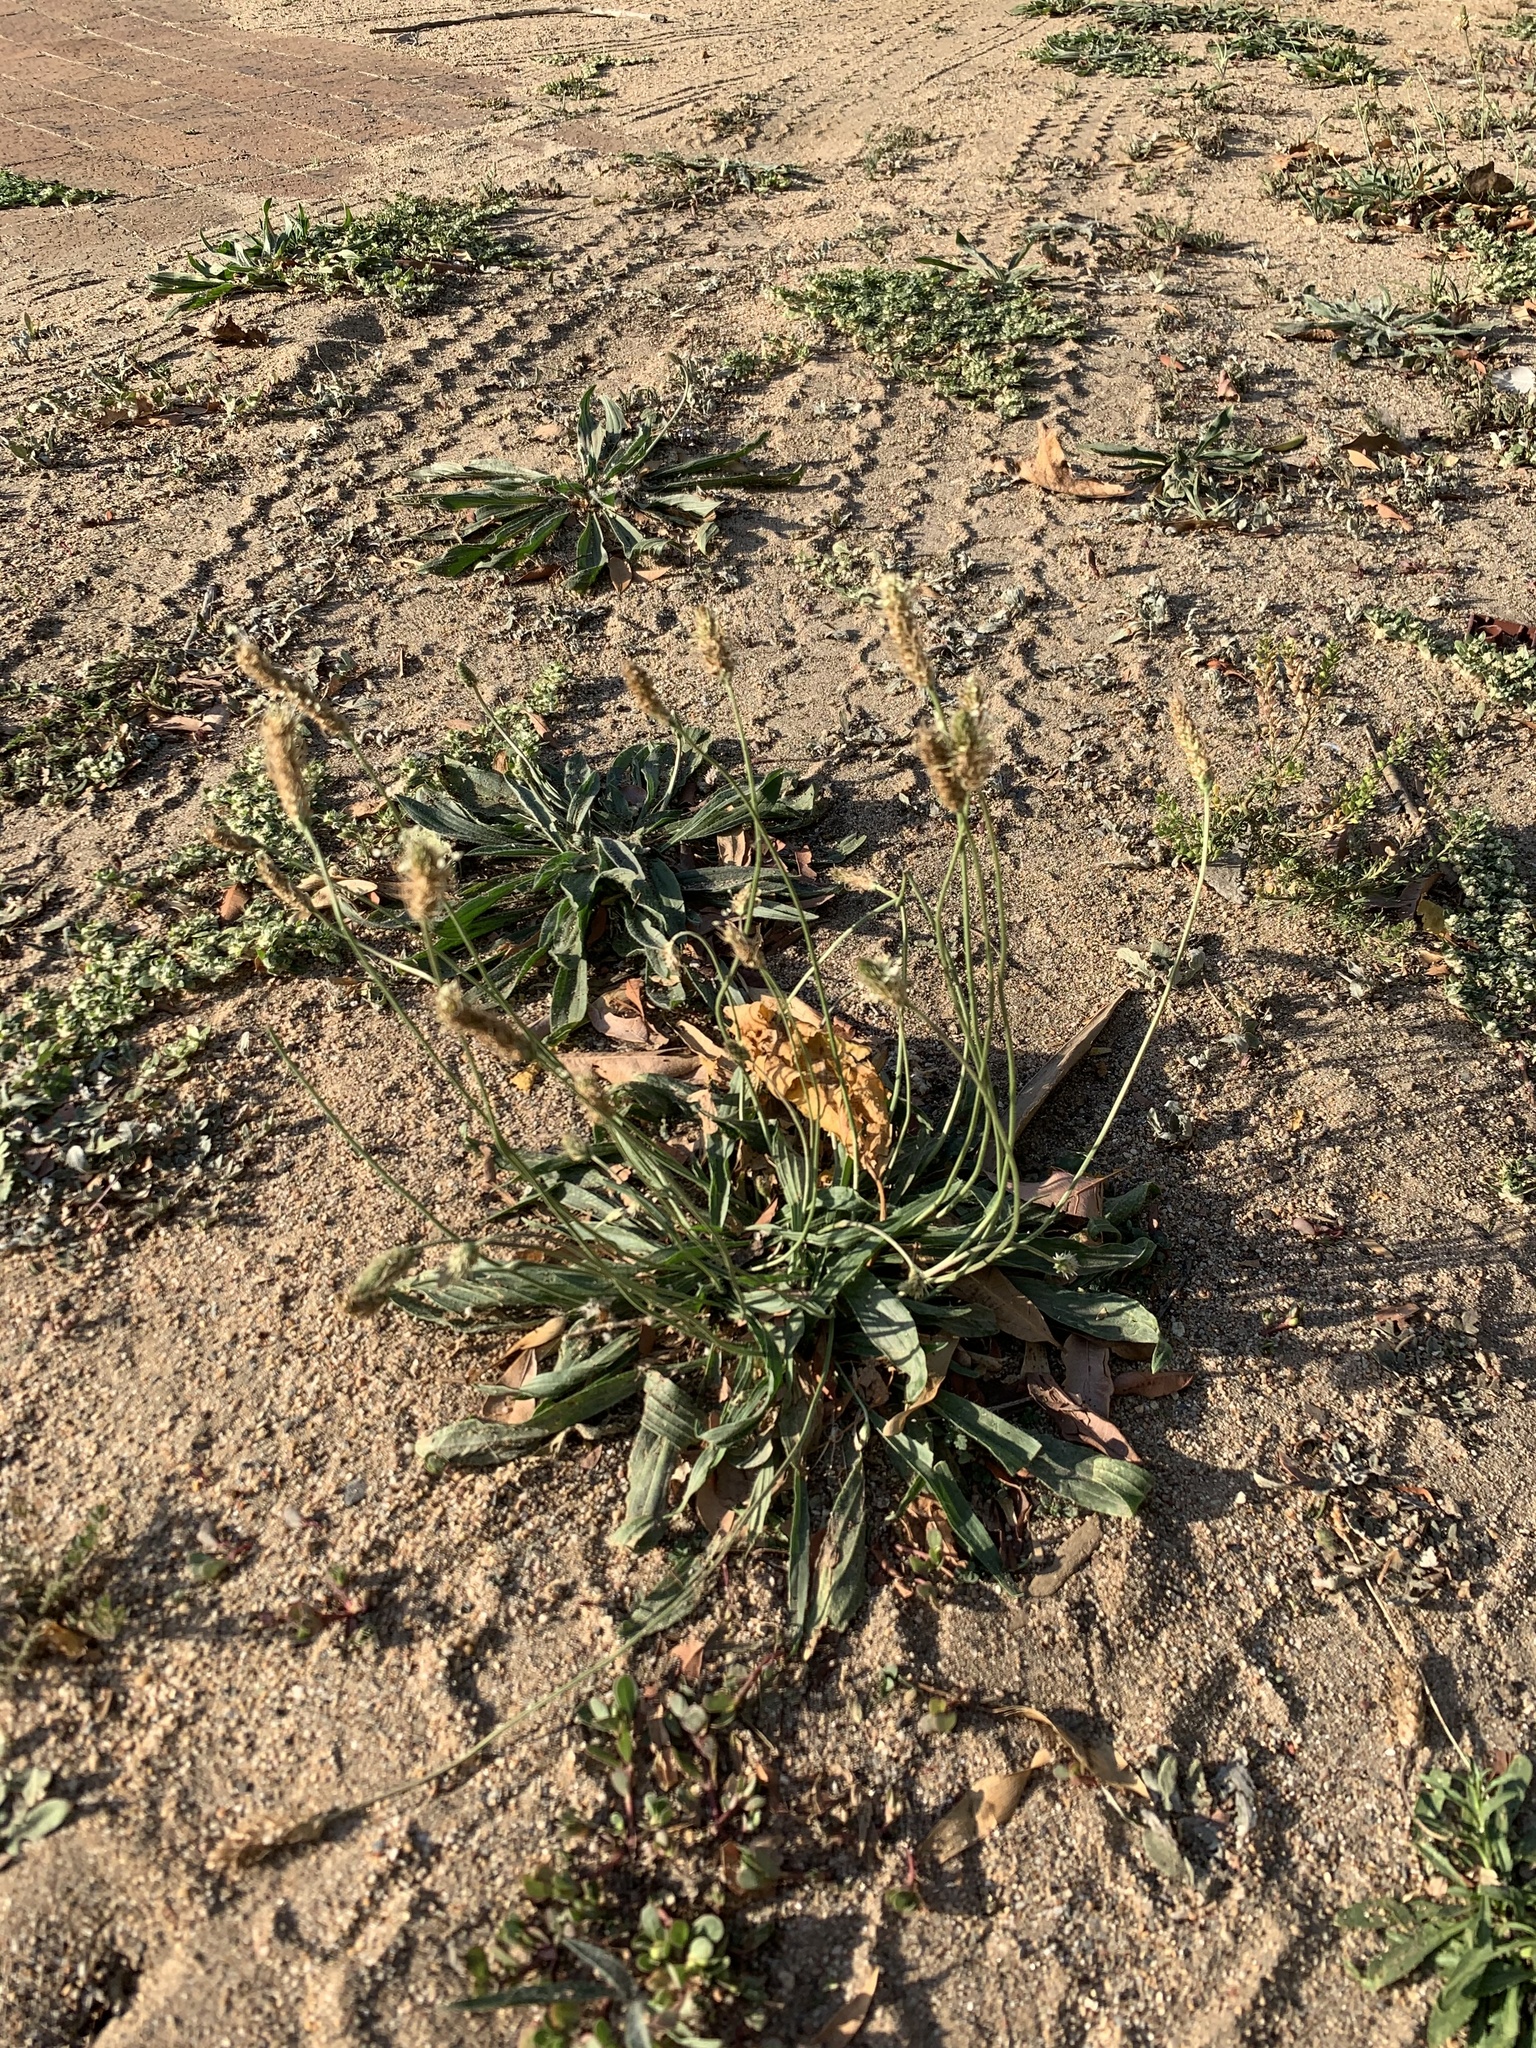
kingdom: Plantae
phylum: Tracheophyta
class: Magnoliopsida
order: Lamiales
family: Plantaginaceae
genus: Plantago
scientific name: Plantago lanceolata
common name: Ribwort plantain
